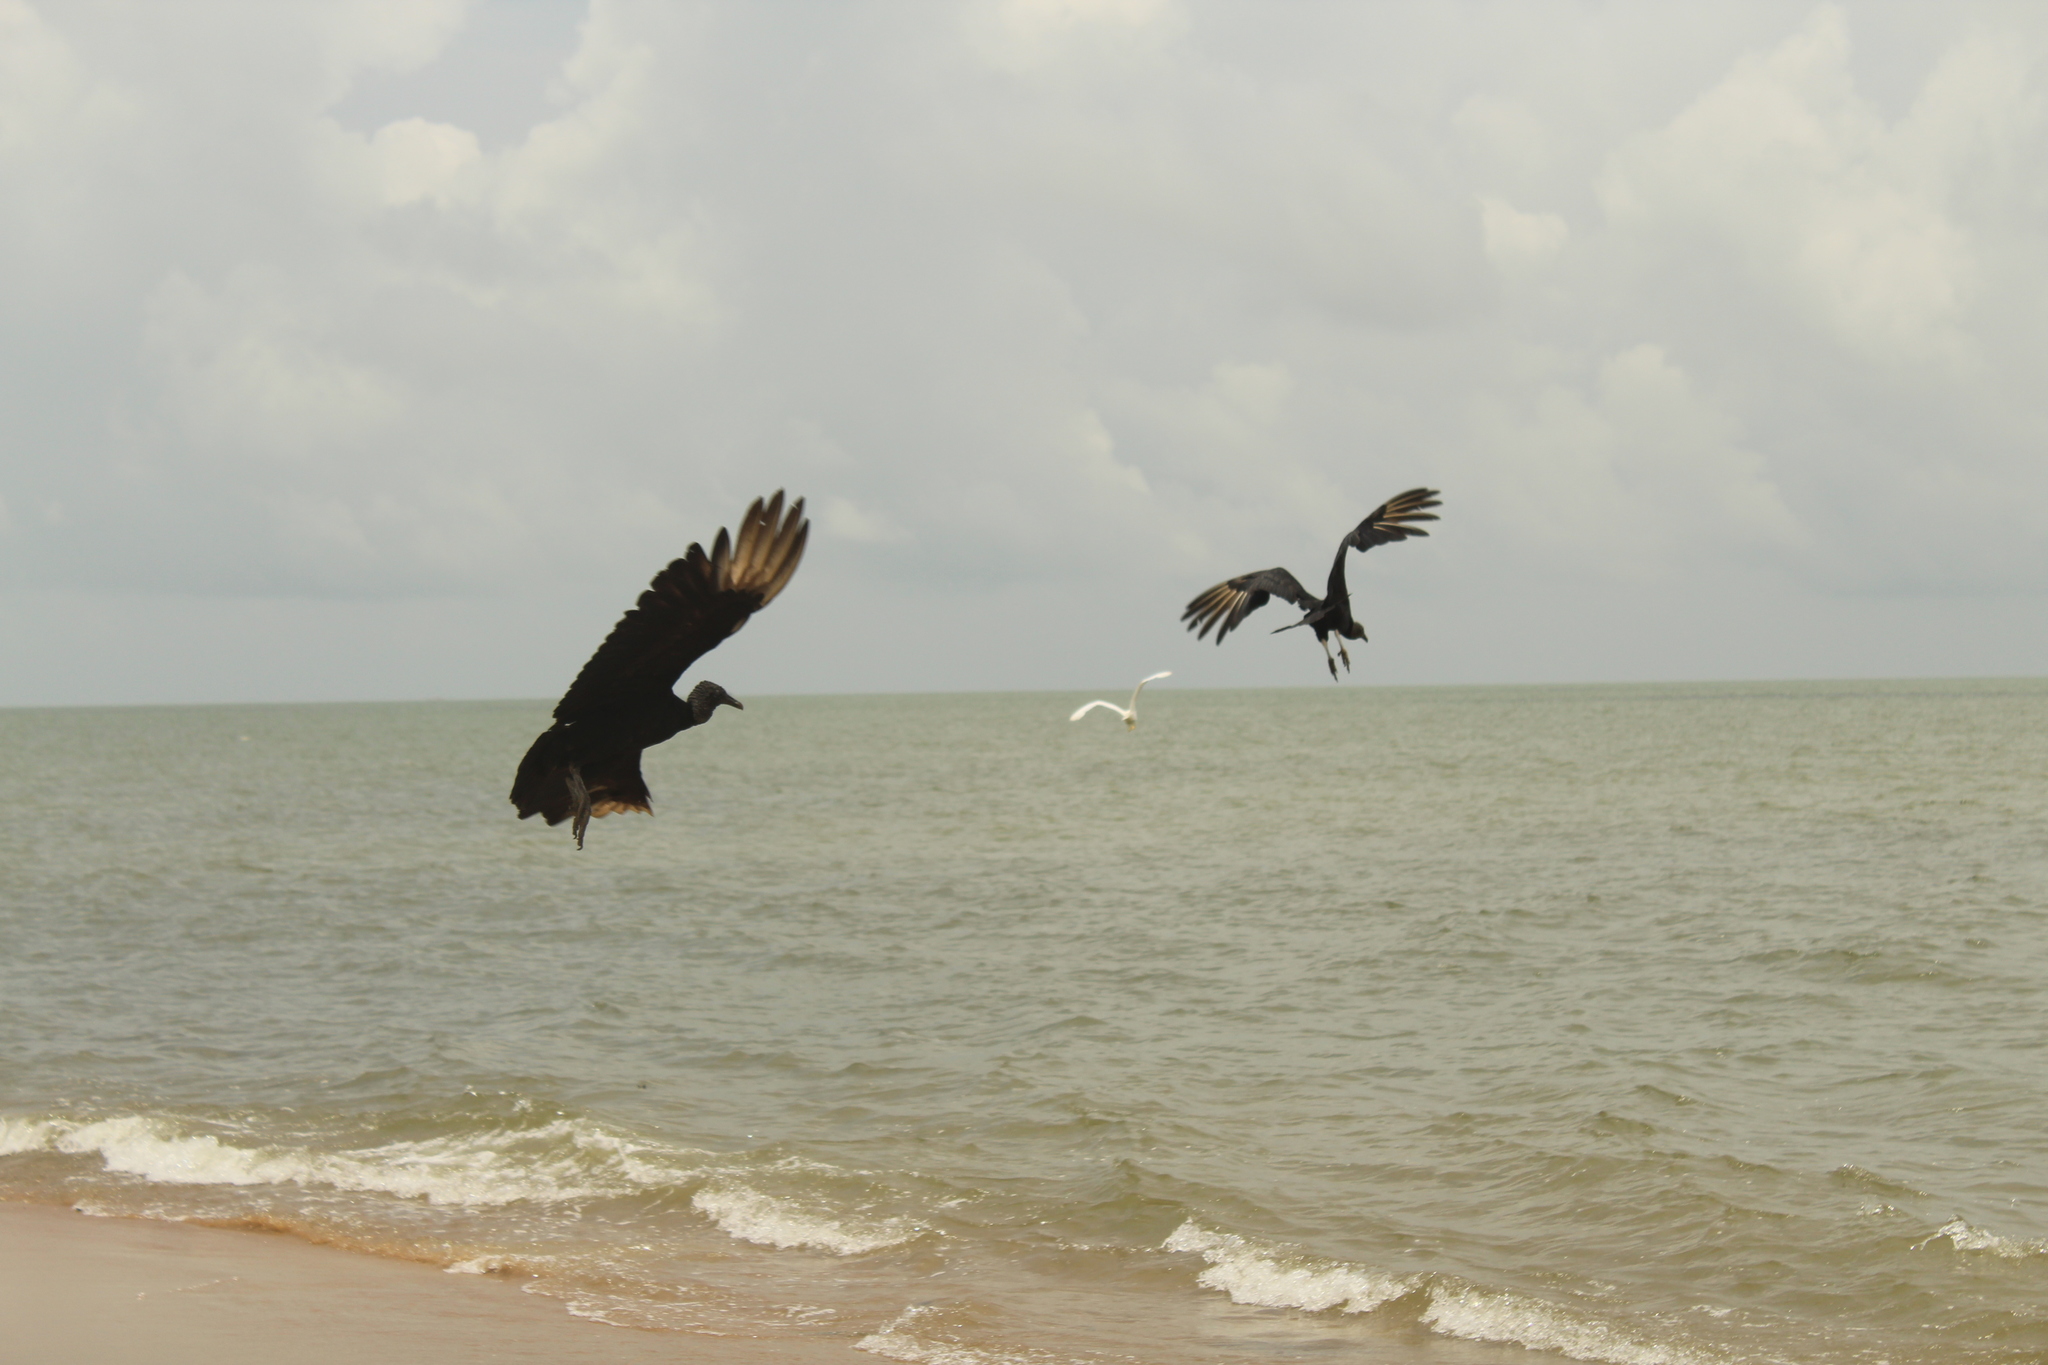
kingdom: Animalia
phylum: Chordata
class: Aves
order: Accipitriformes
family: Cathartidae
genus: Coragyps
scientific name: Coragyps atratus
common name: Black vulture
